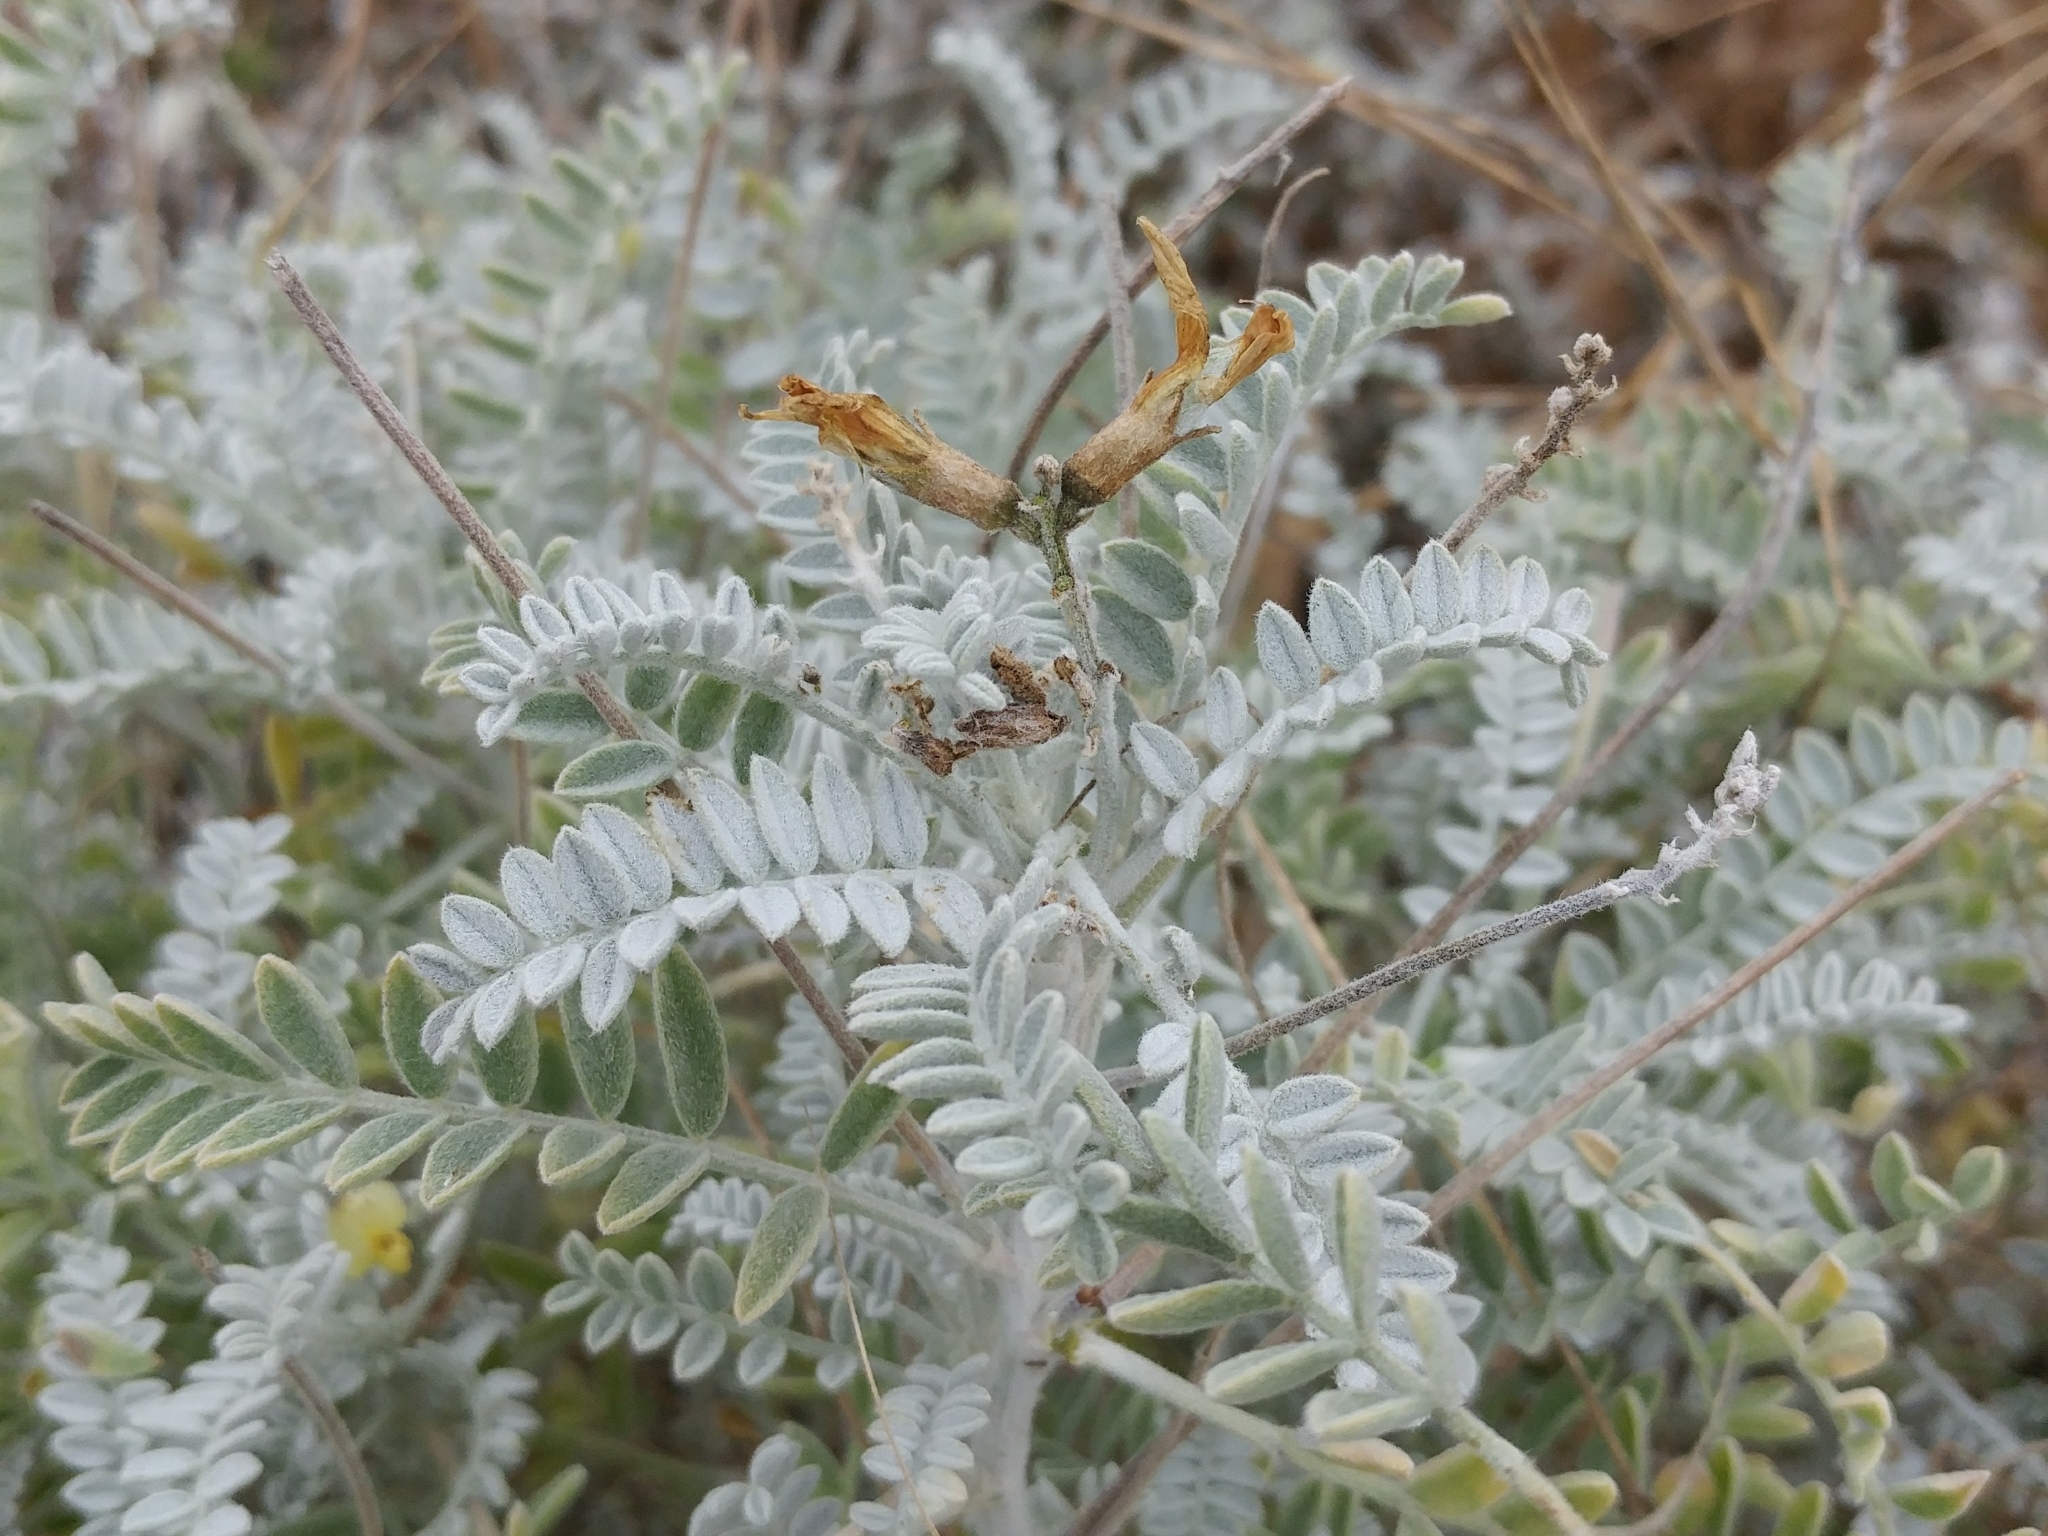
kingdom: Plantae
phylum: Tracheophyta
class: Magnoliopsida
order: Fabales
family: Fabaceae
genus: Astragalus
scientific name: Astragalus traskiae
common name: Trask's milk-vetch
